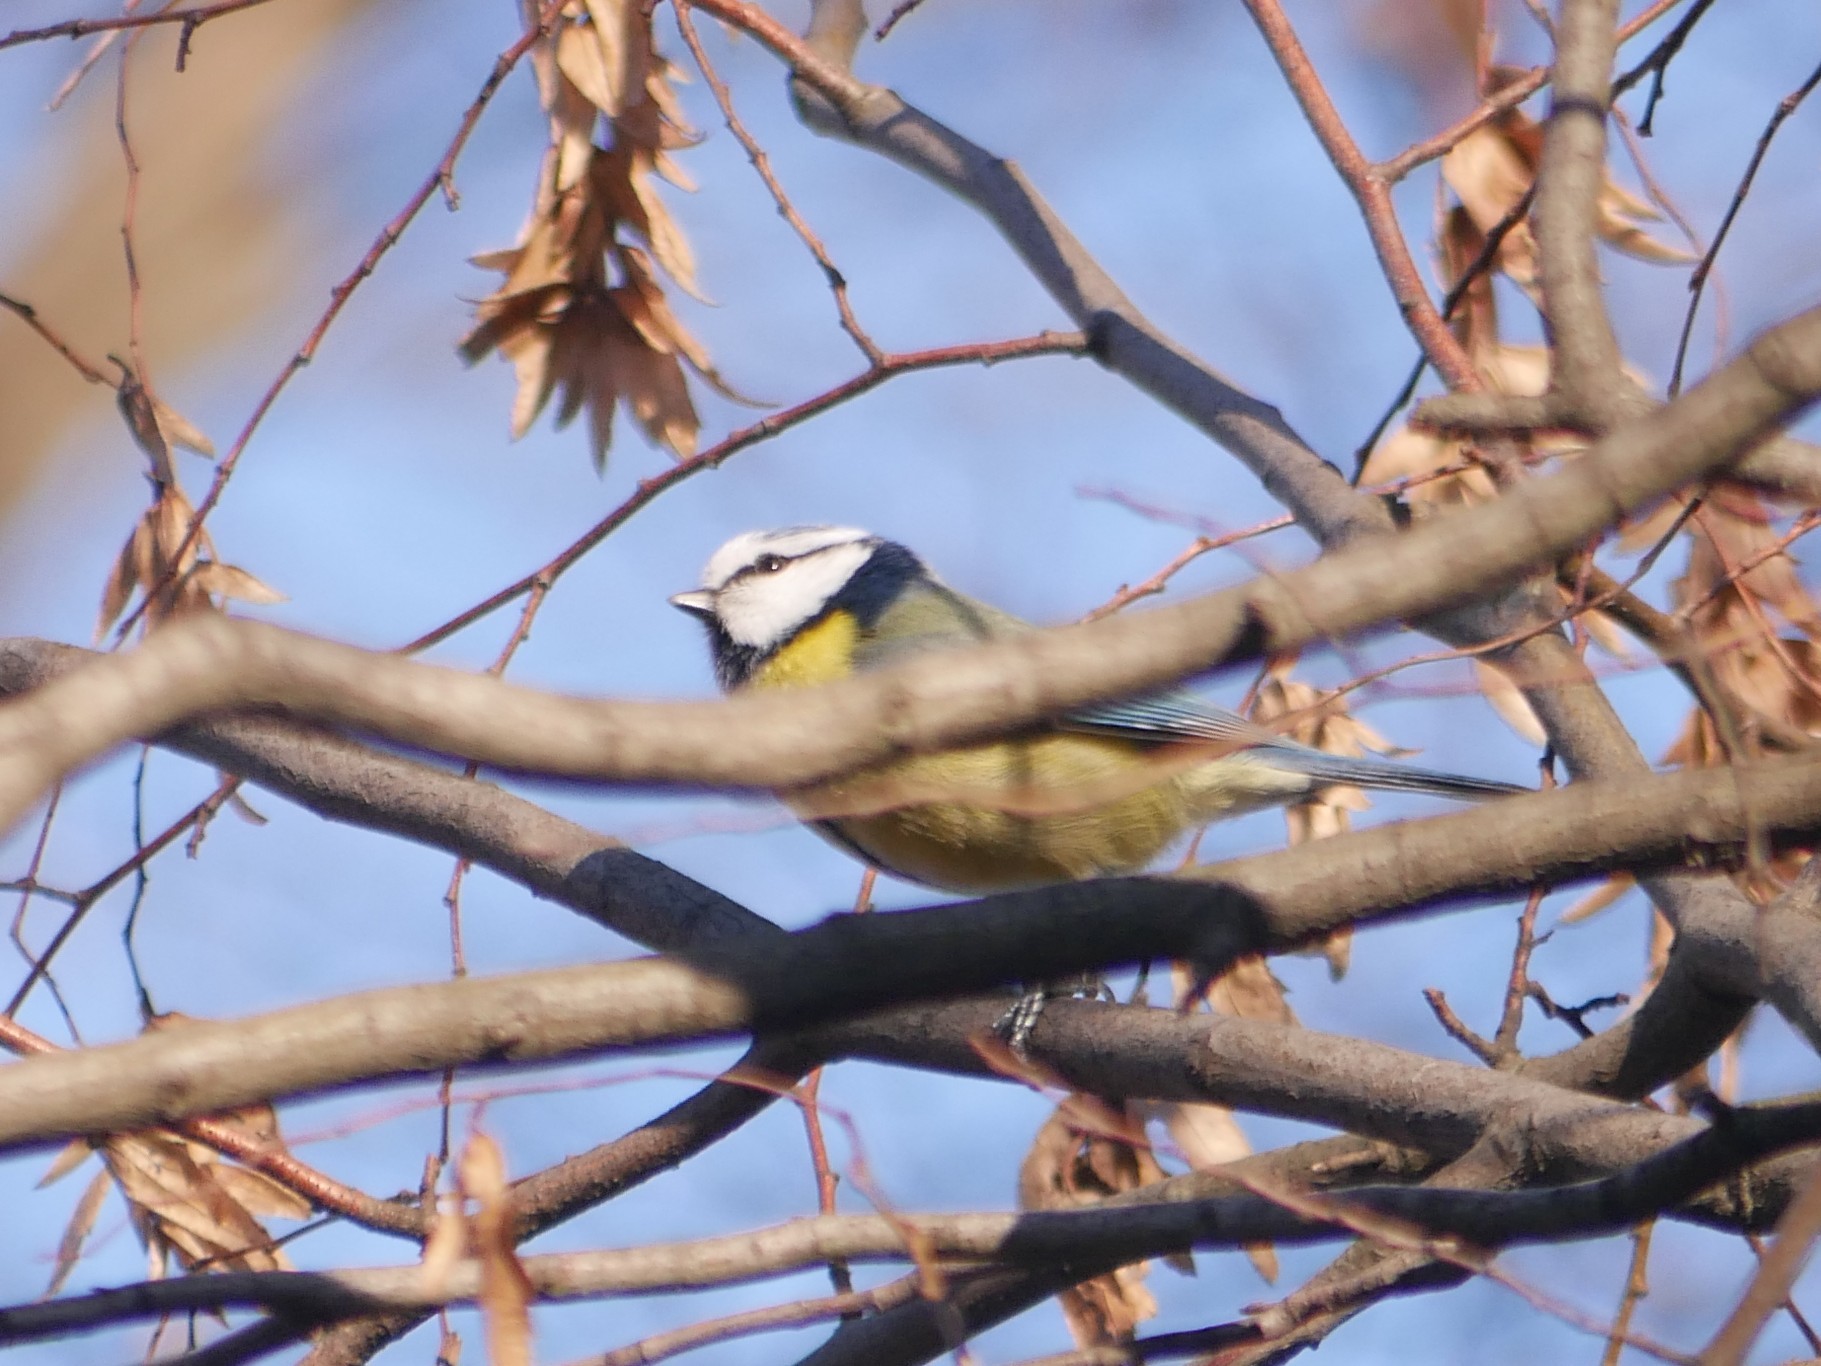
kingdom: Animalia
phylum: Chordata
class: Aves
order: Passeriformes
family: Paridae
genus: Cyanistes
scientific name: Cyanistes caeruleus
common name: Eurasian blue tit
